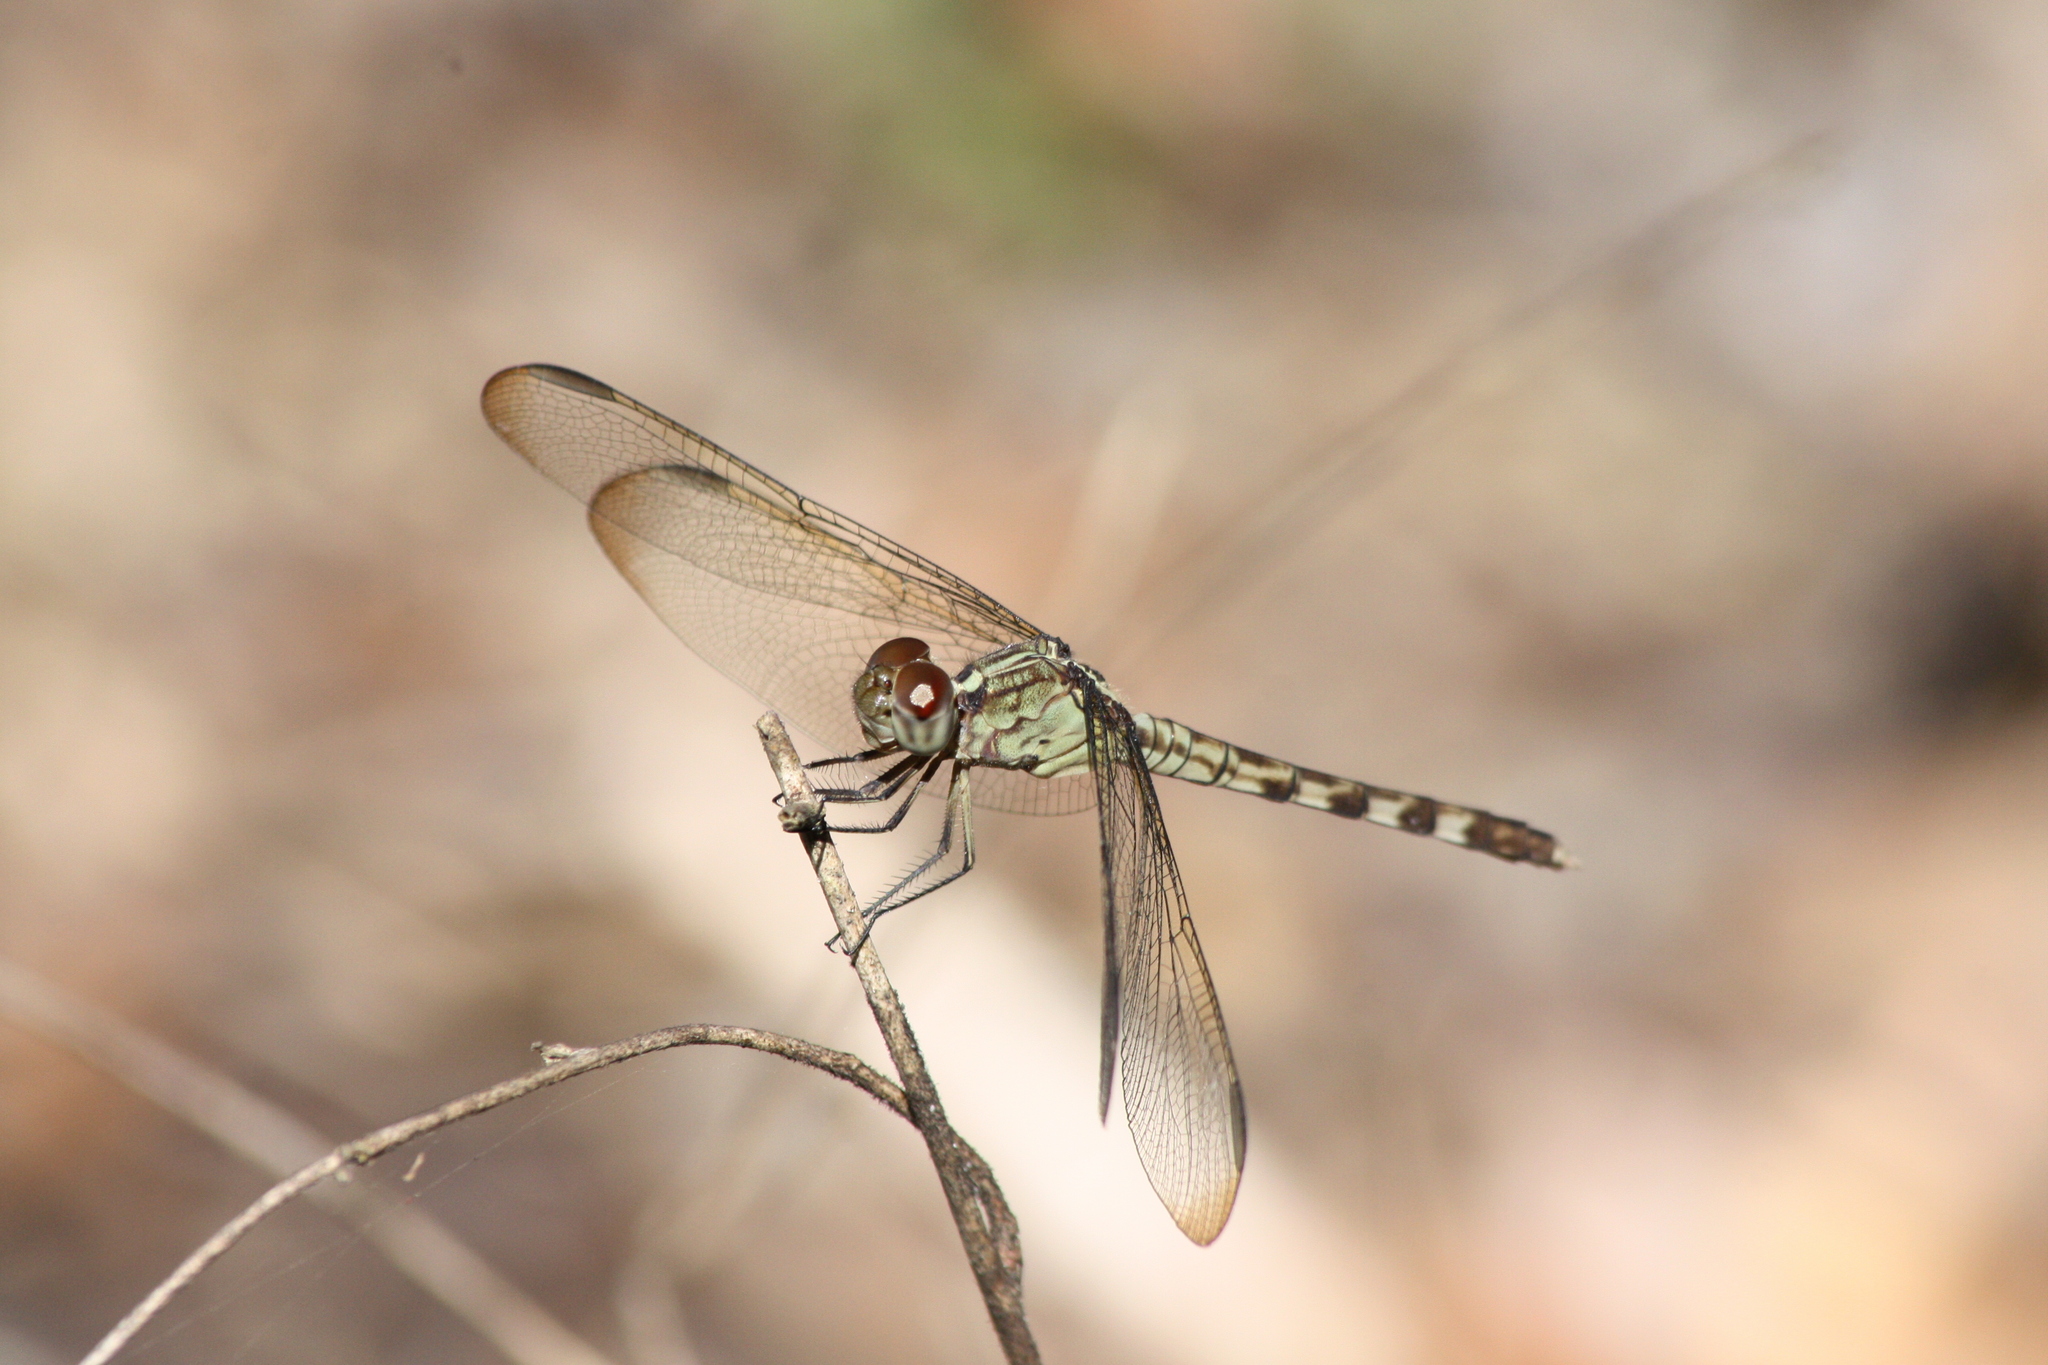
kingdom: Animalia
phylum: Arthropoda
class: Insecta
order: Odonata
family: Libellulidae
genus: Erythrodiplax
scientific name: Erythrodiplax umbrata
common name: Band-winged dragonlet
